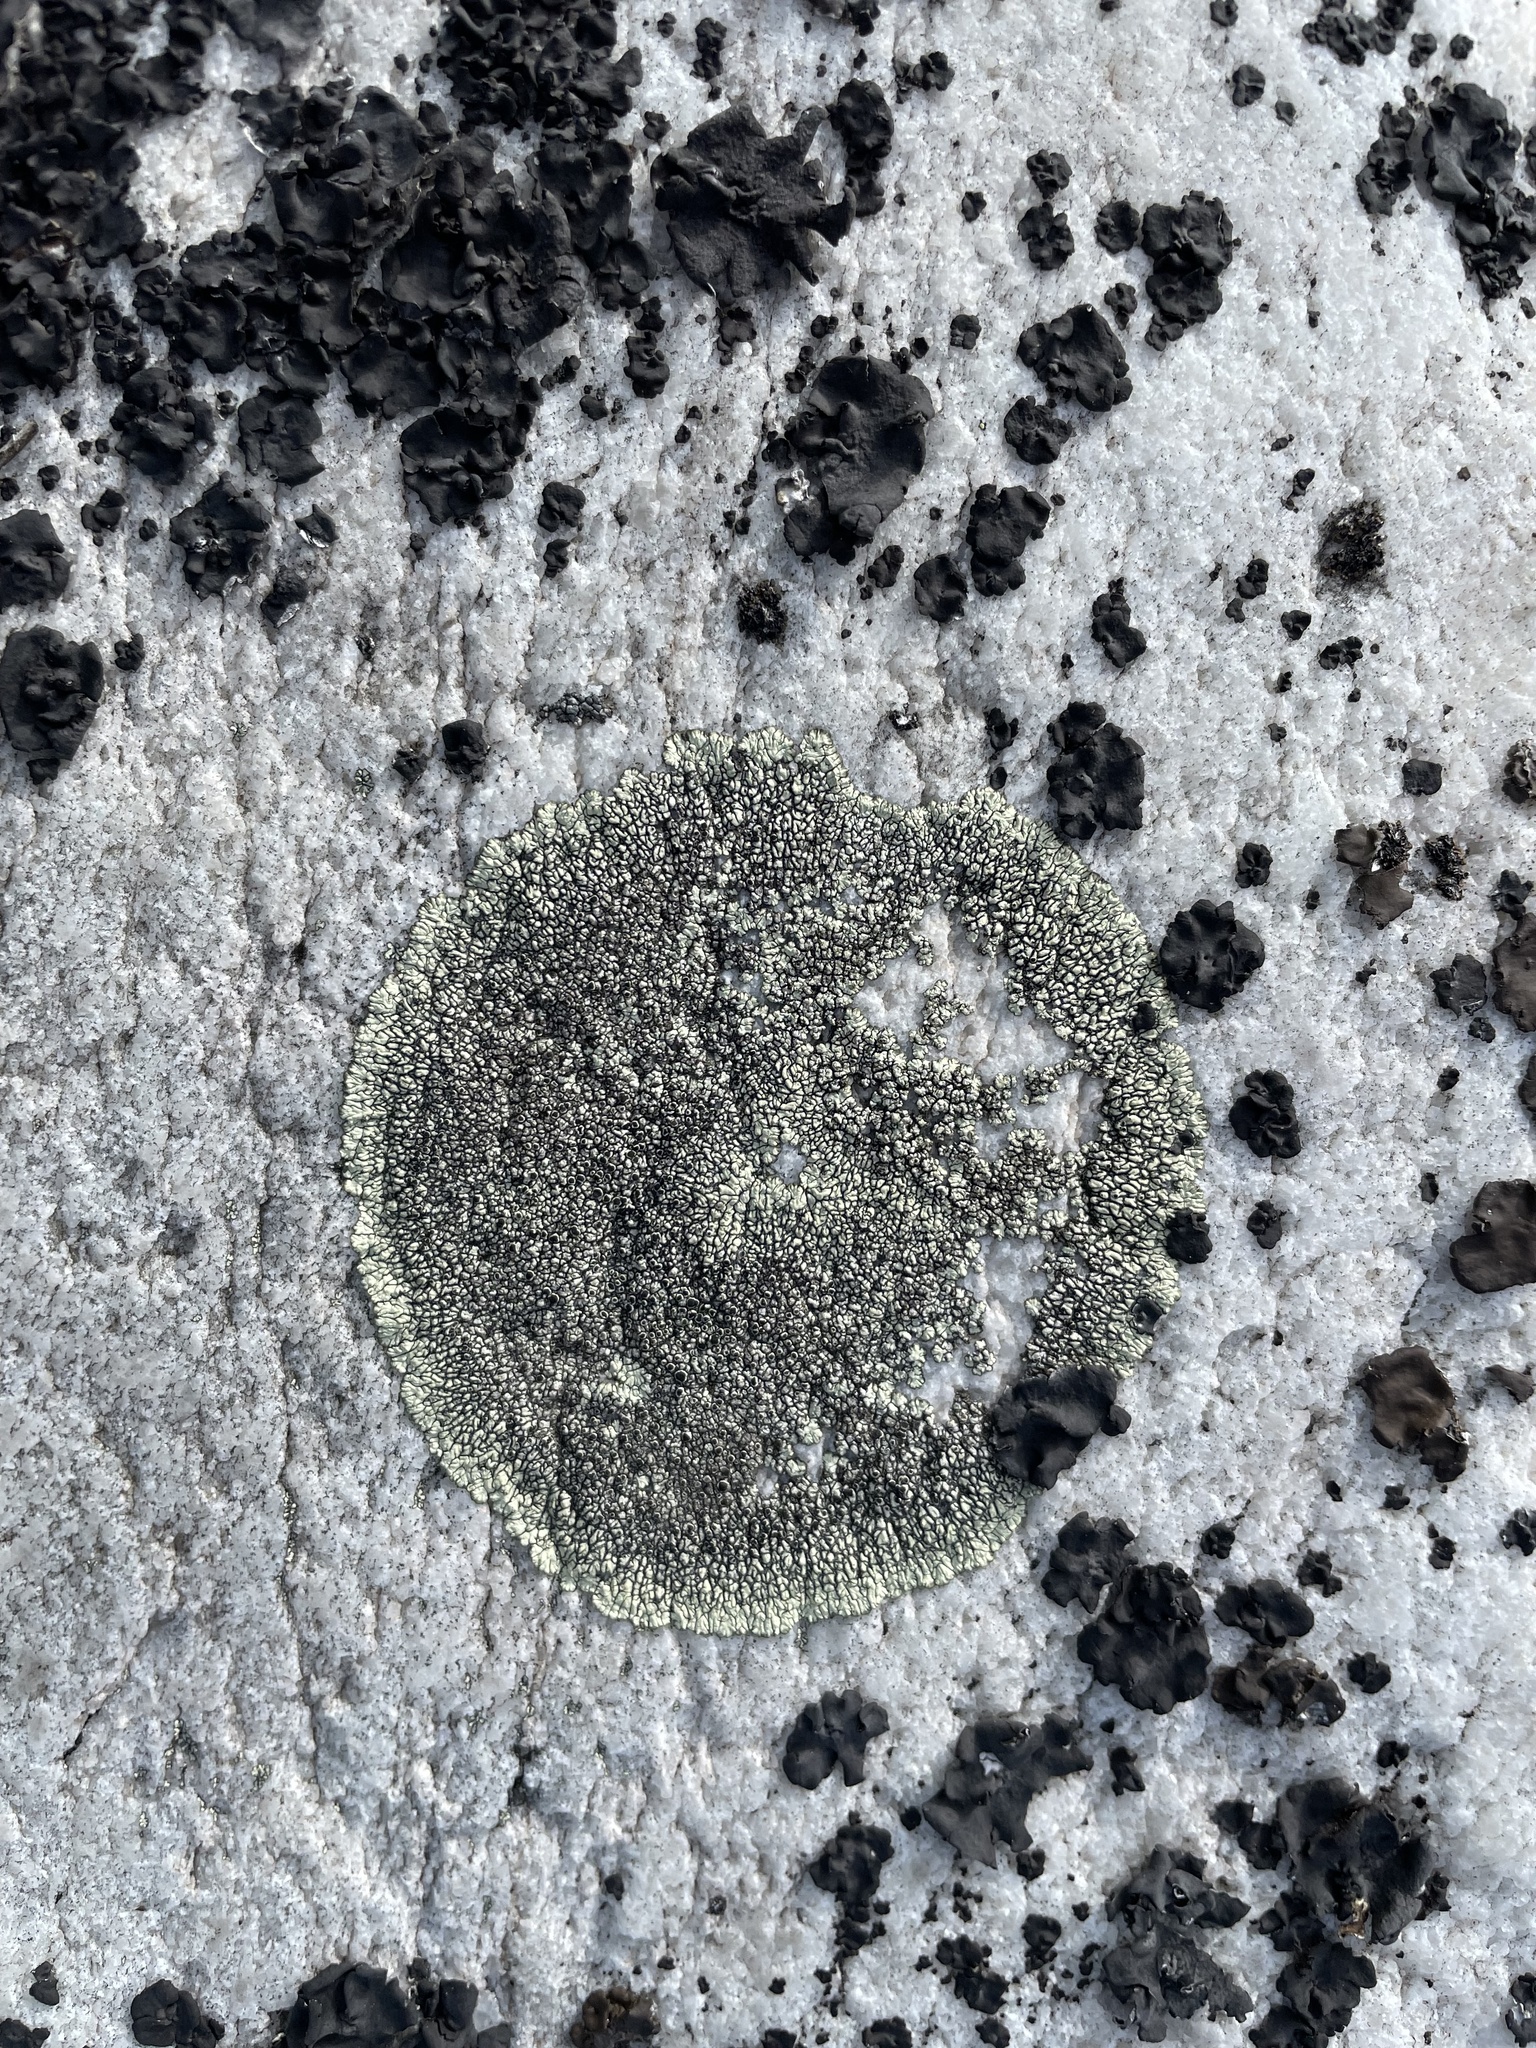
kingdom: Fungi
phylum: Ascomycota
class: Lecanoromycetes
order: Caliciales
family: Caliciaceae
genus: Dimelaena
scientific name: Dimelaena oreina
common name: Golden moonglow lichen
